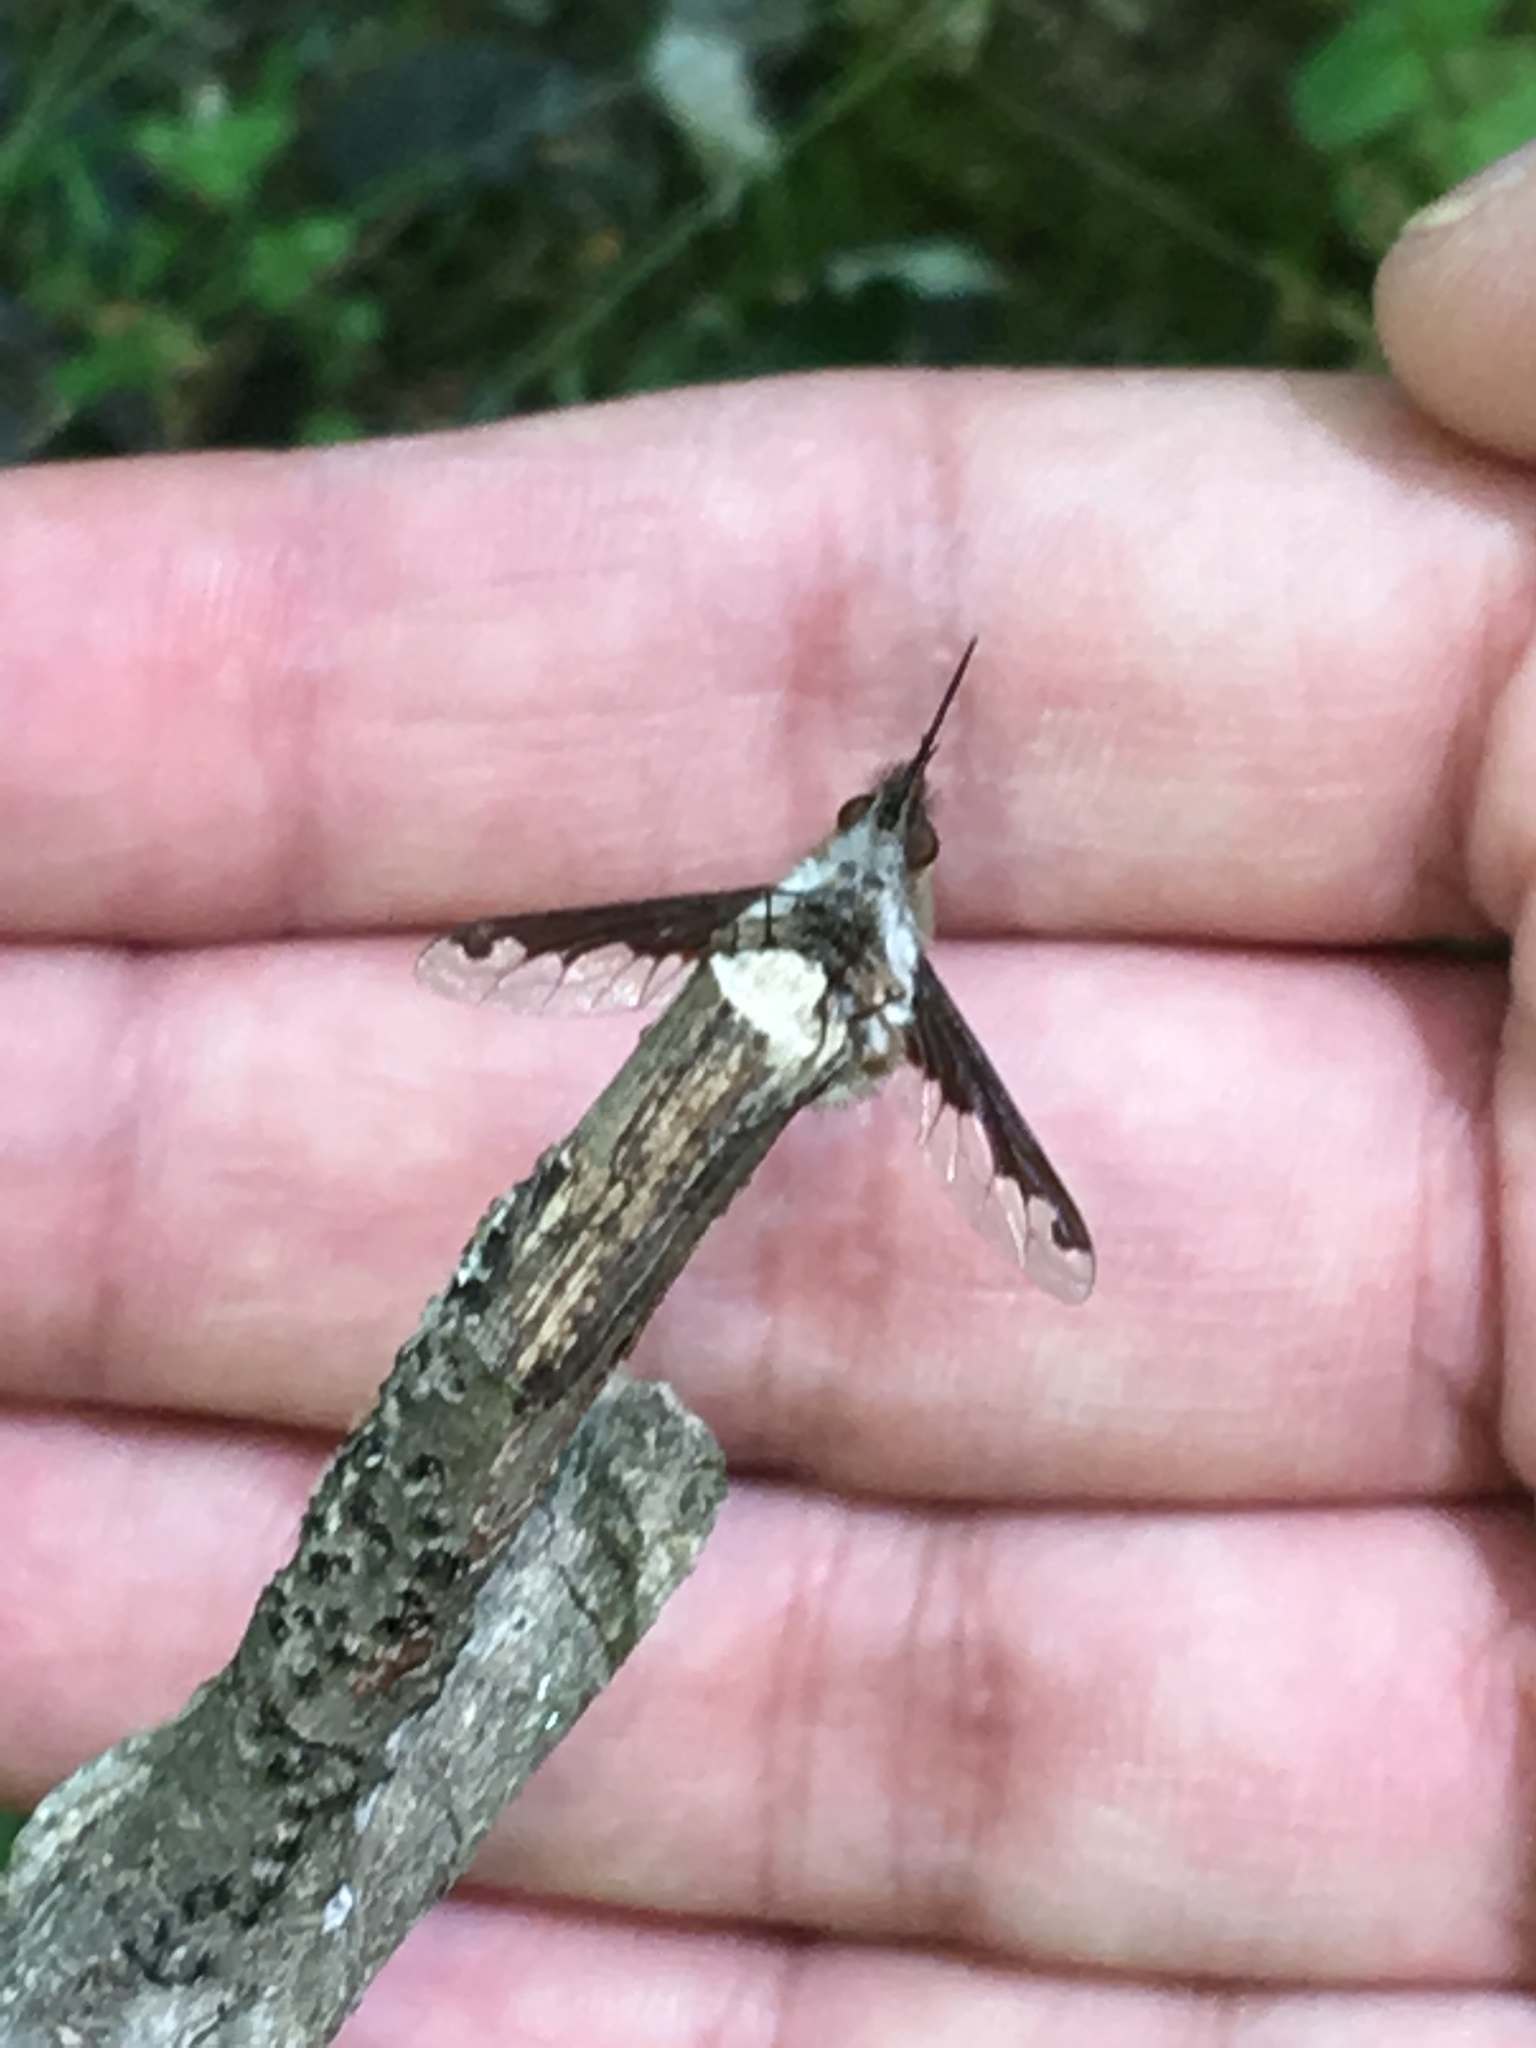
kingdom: Animalia
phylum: Arthropoda
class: Insecta
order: Diptera
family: Bombyliidae
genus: Bombylius
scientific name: Bombylius major
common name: Bee fly
